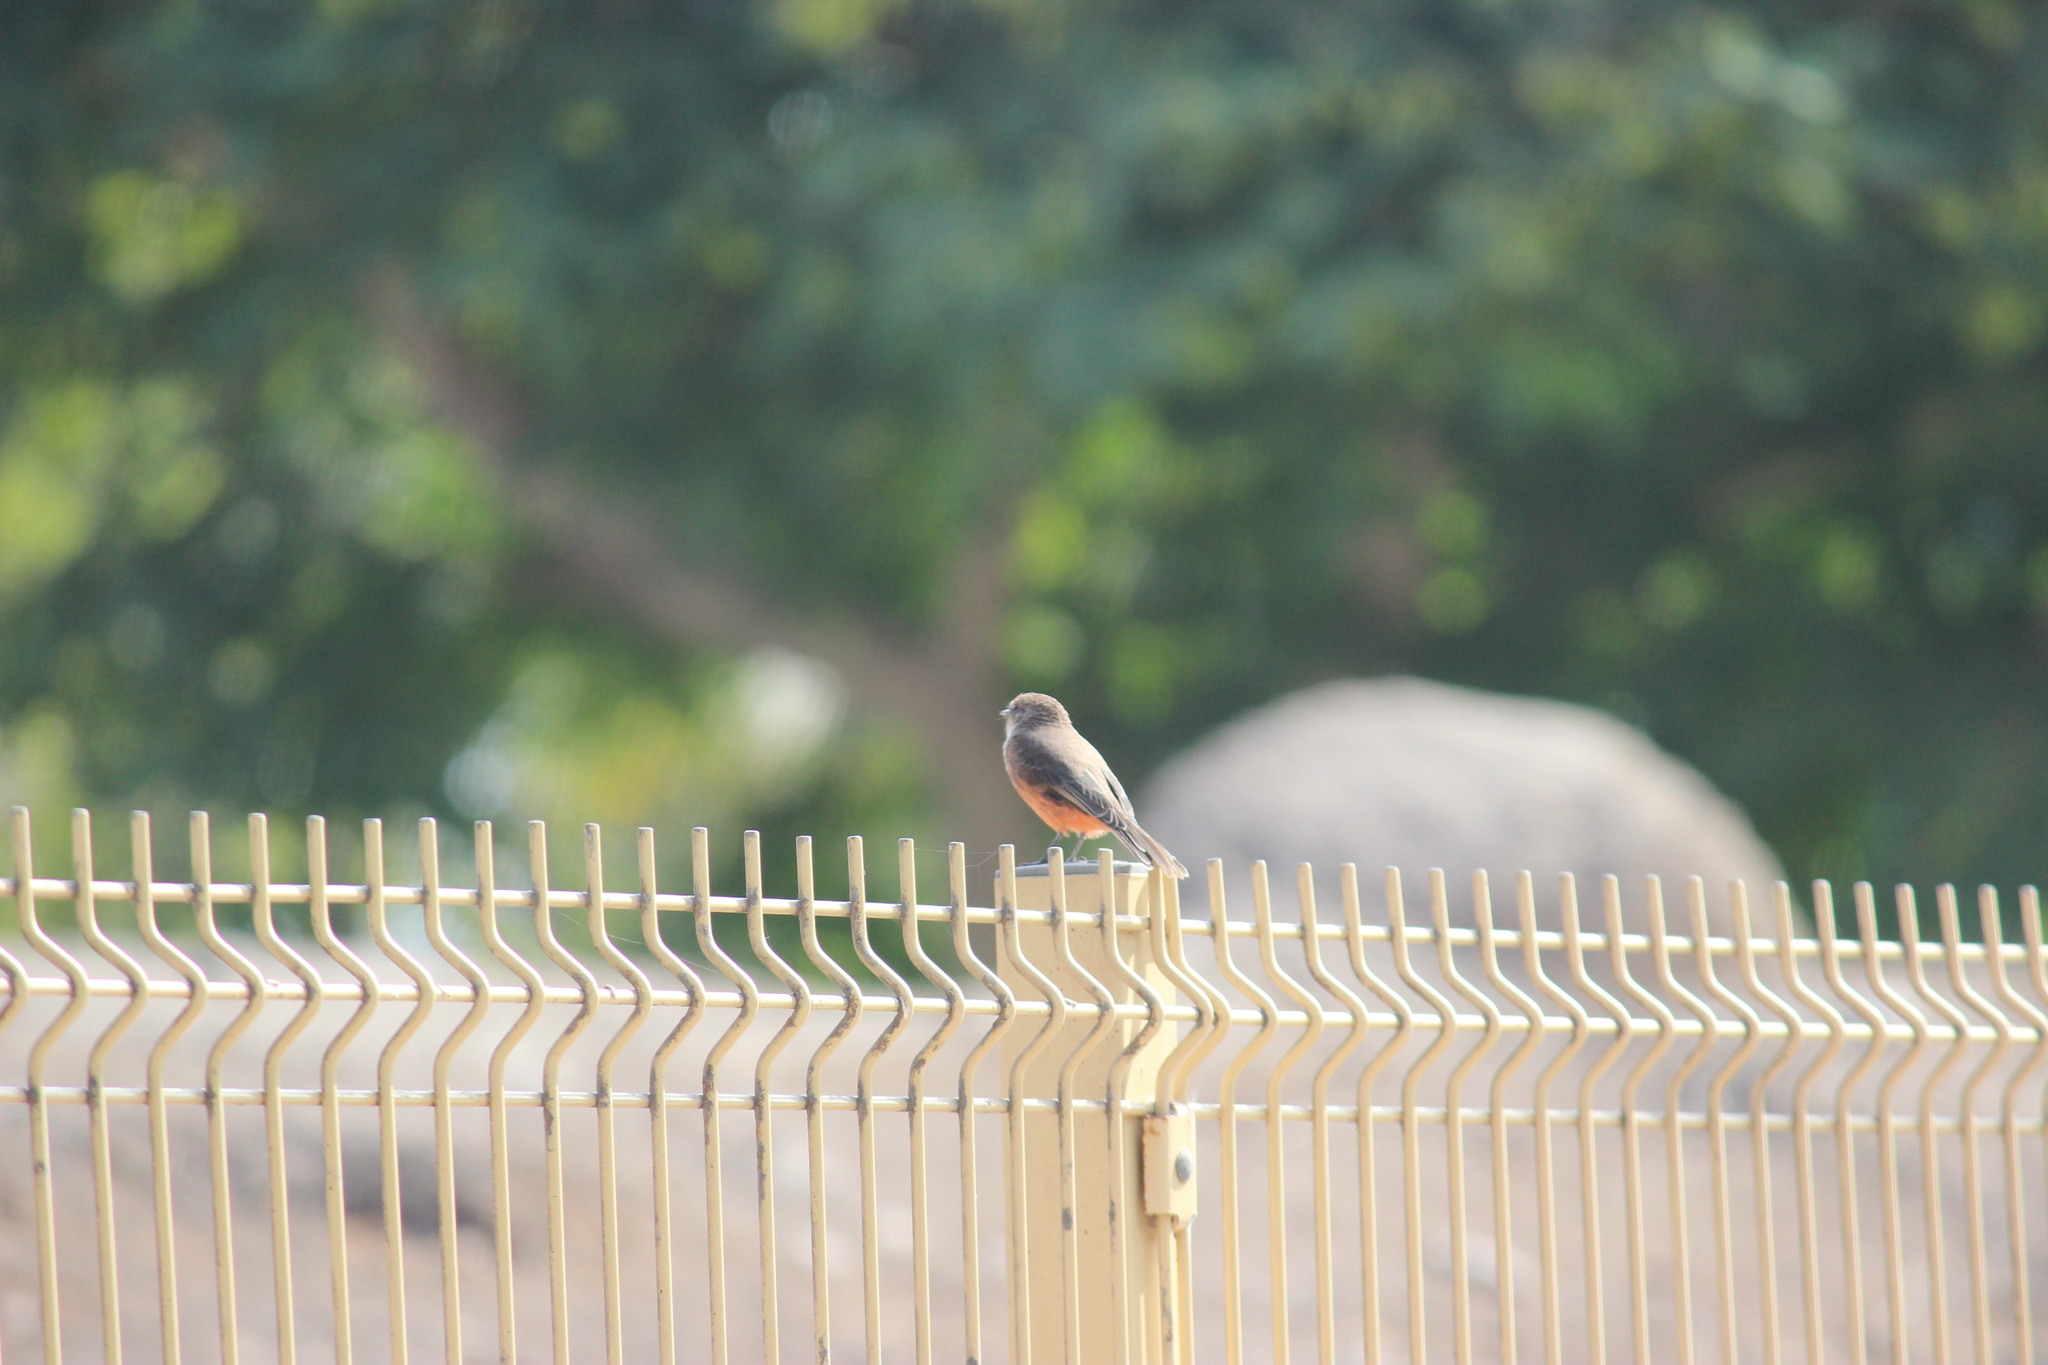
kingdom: Animalia
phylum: Chordata
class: Aves
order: Passeriformes
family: Tyrannidae
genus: Pyrocephalus
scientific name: Pyrocephalus rubinus
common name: Vermilion flycatcher
